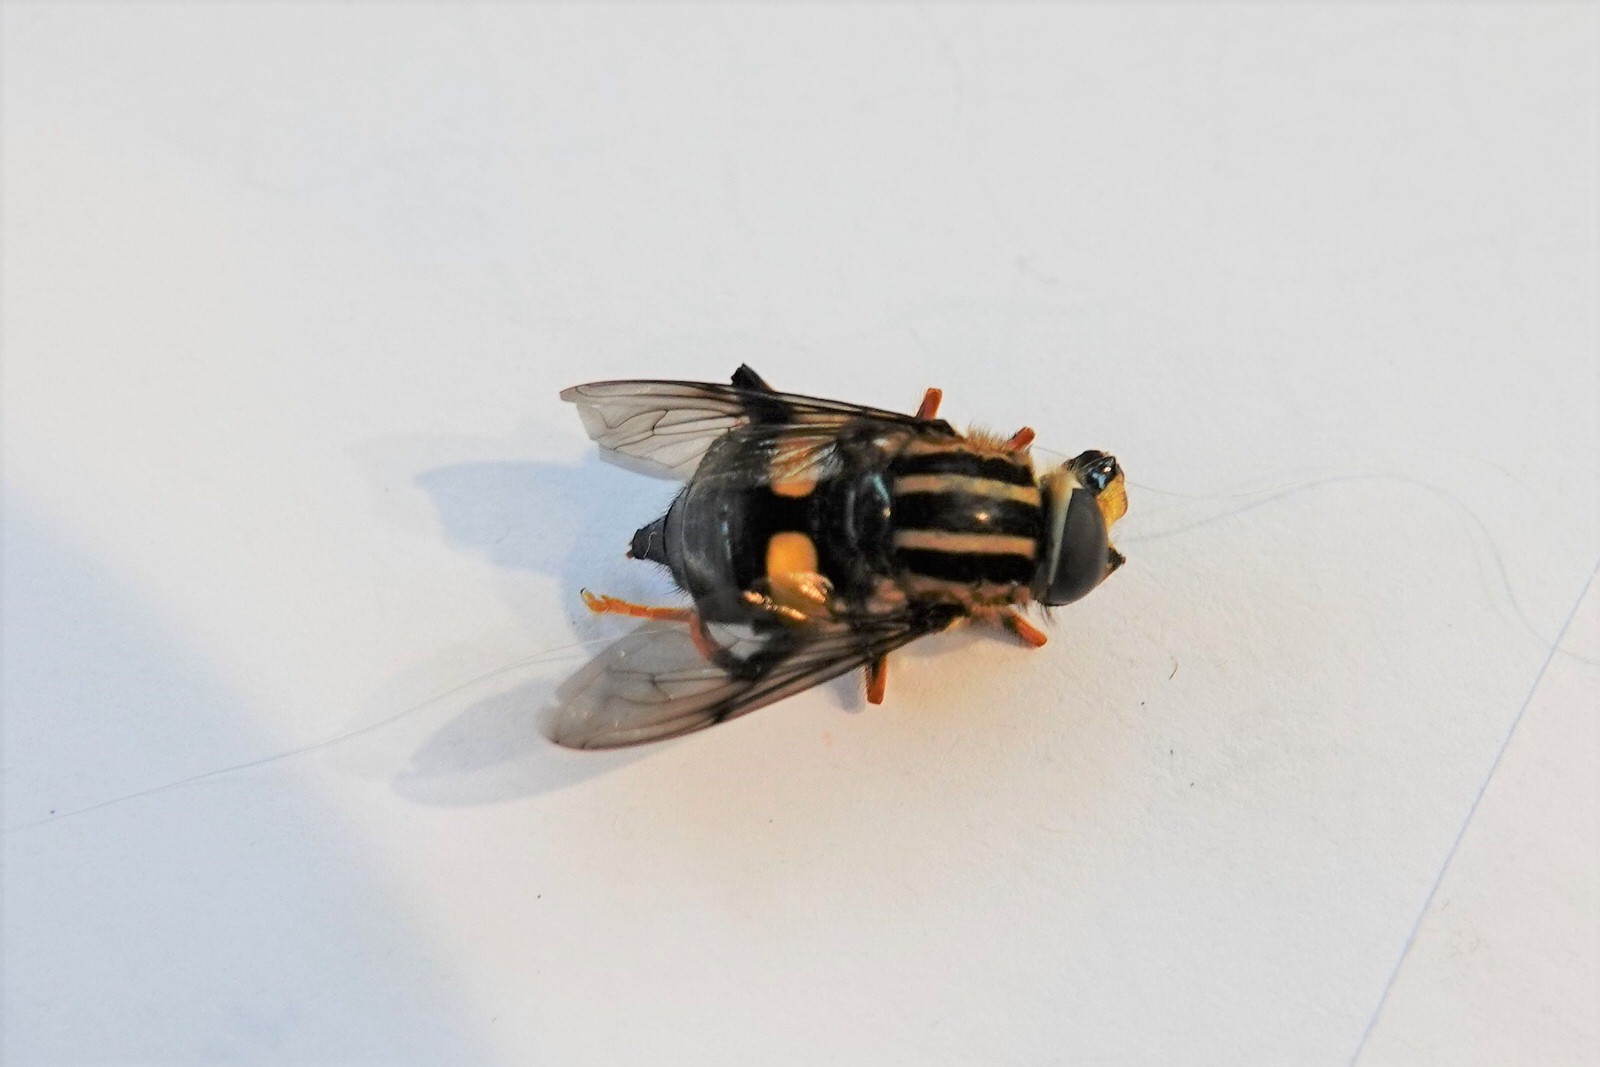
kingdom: Animalia
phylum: Arthropoda
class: Insecta
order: Diptera
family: Syrphidae
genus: Helophilus
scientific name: Helophilus seelandicus
